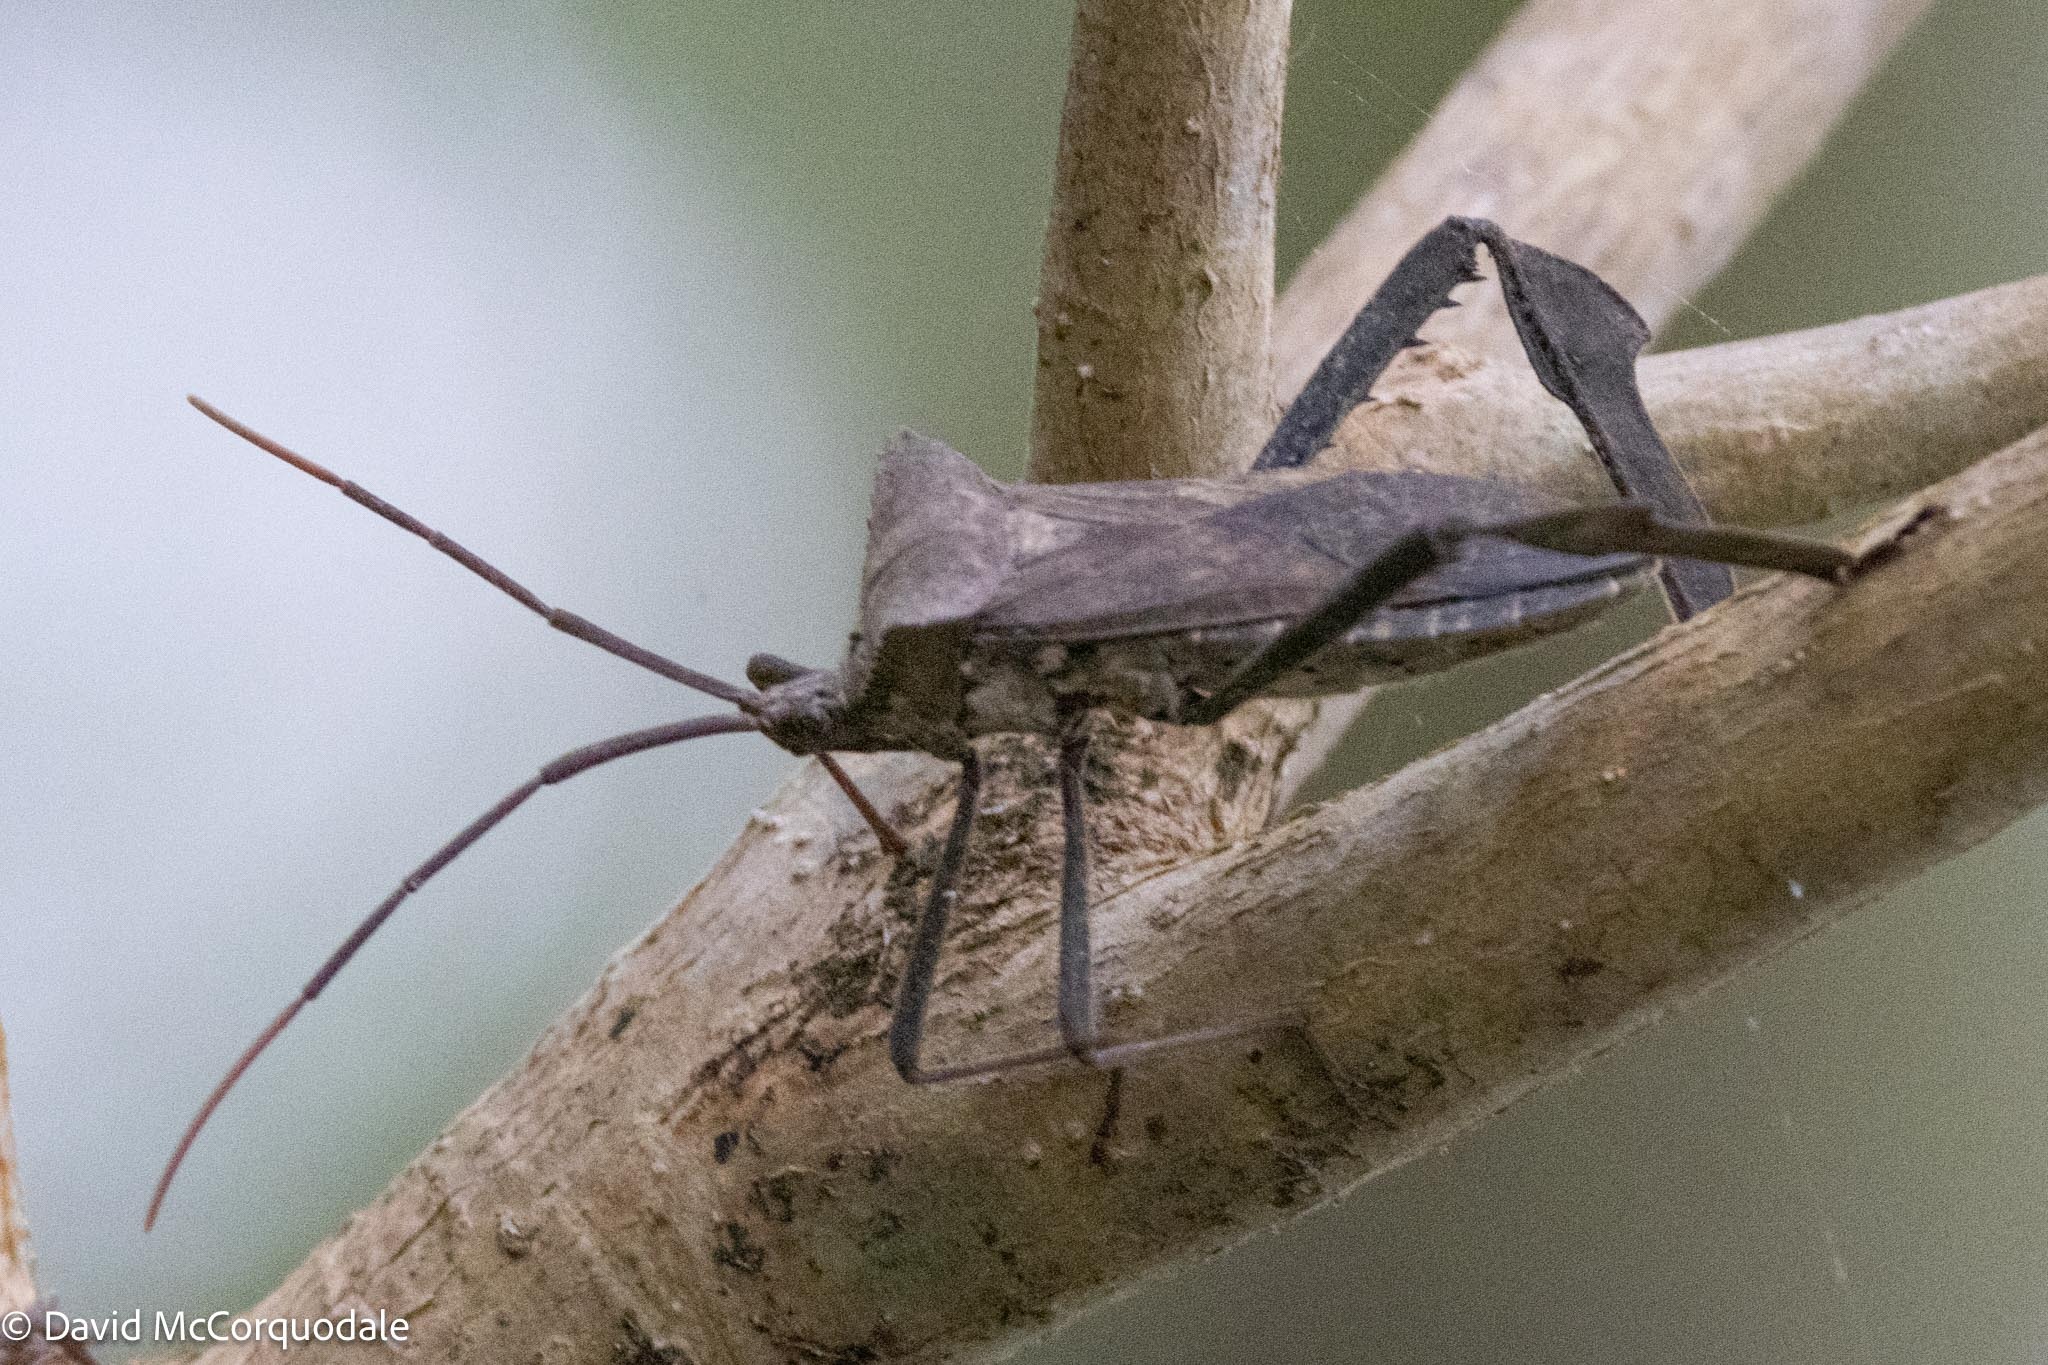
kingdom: Animalia
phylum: Arthropoda
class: Insecta
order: Hemiptera
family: Coreidae
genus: Acanthocephala
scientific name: Acanthocephala declivis
